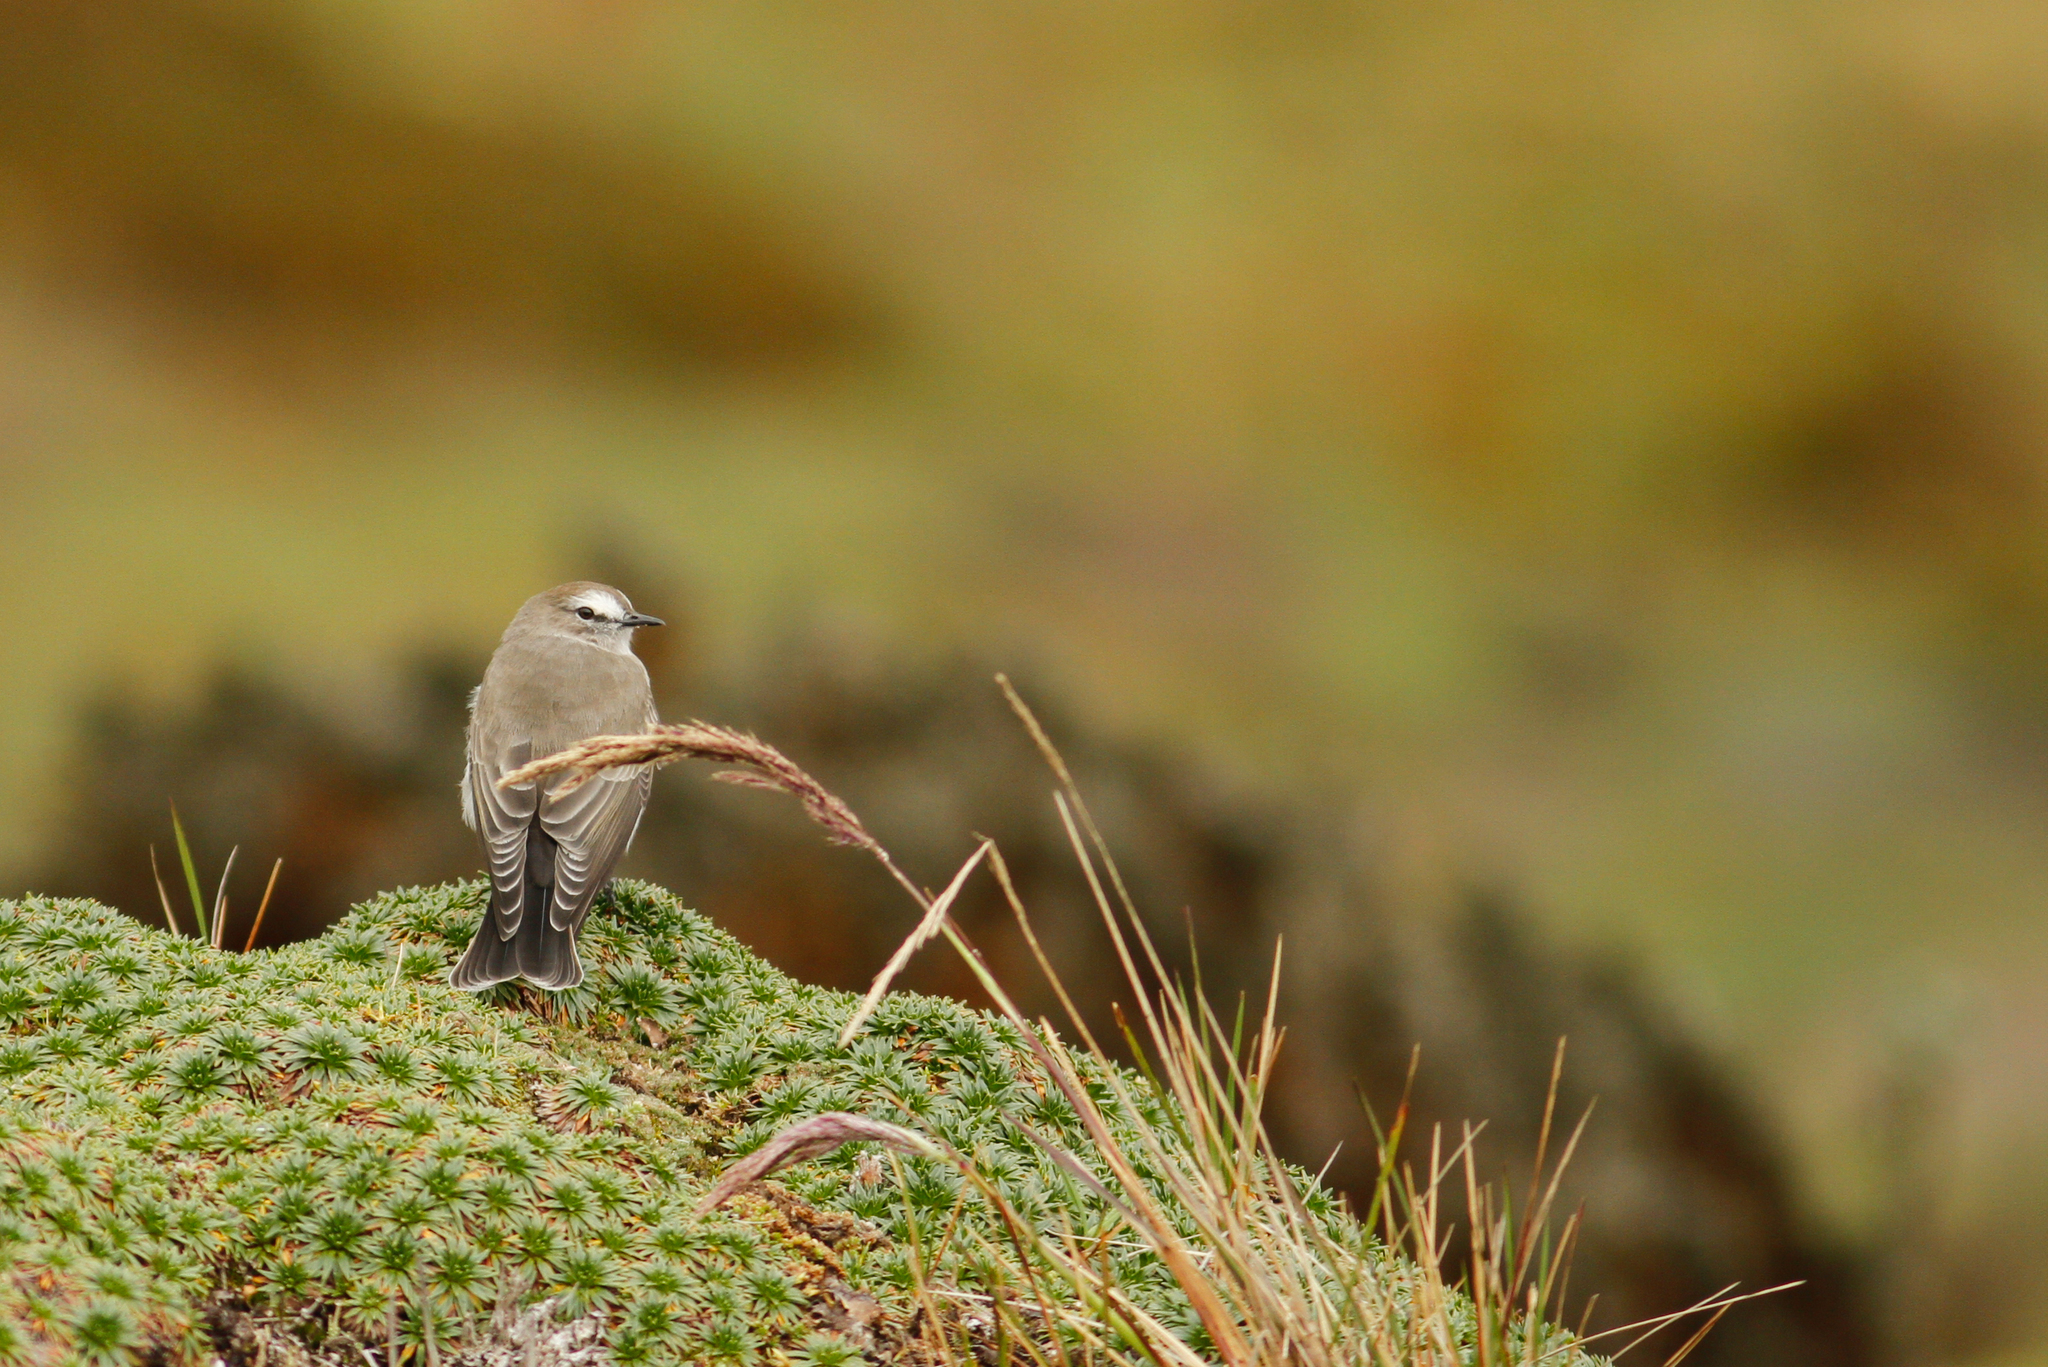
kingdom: Animalia
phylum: Chordata
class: Aves
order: Passeriformes
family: Tyrannidae
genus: Muscisaxicola
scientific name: Muscisaxicola alpinus
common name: Paramo ground tyrant
